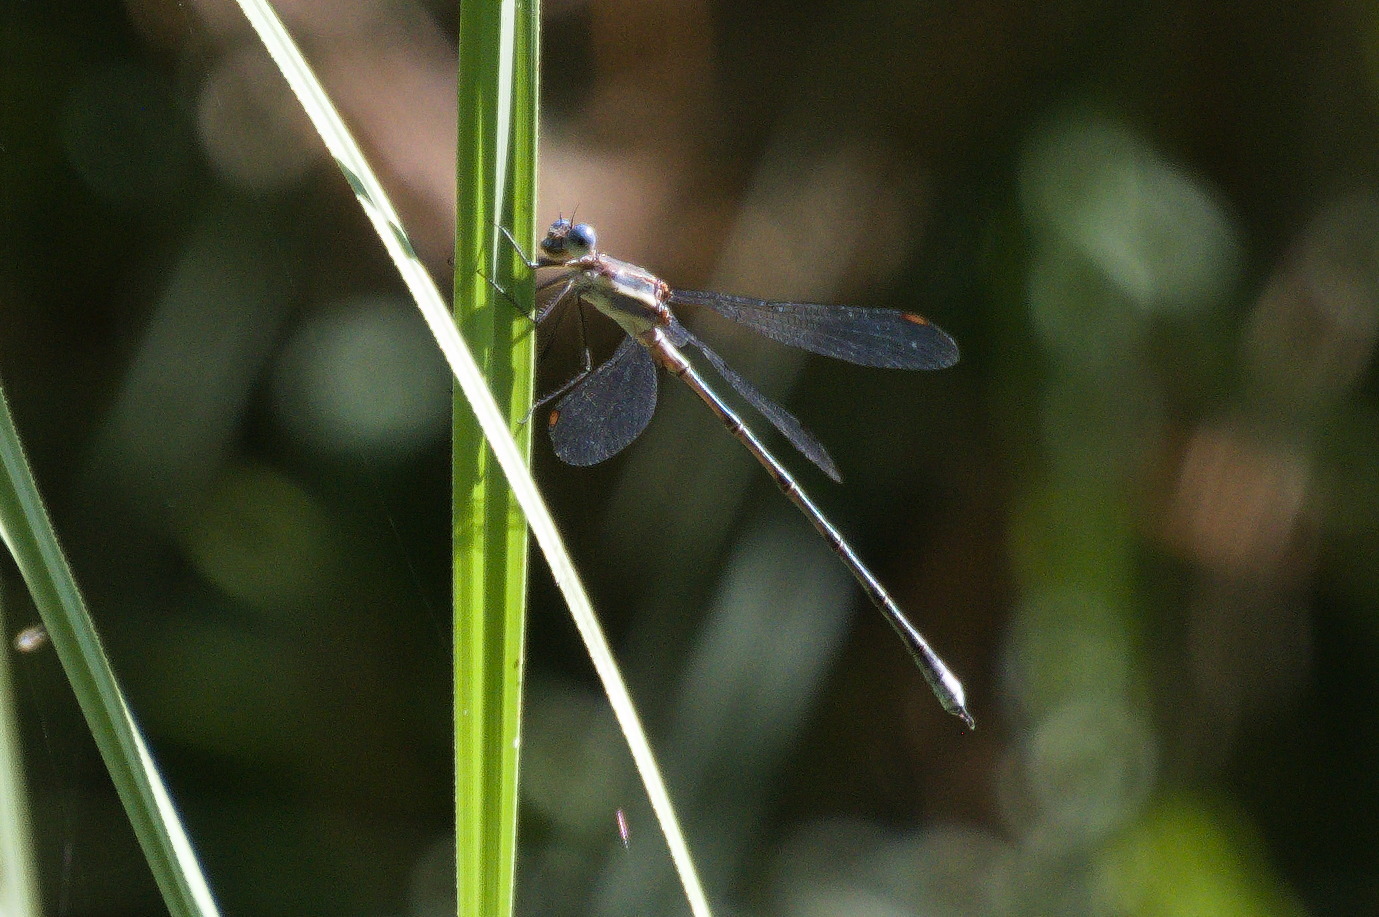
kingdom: Animalia
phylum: Arthropoda
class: Insecta
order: Odonata
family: Lestidae
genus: Archilestes
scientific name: Archilestes grandis
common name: Great spreadwing
